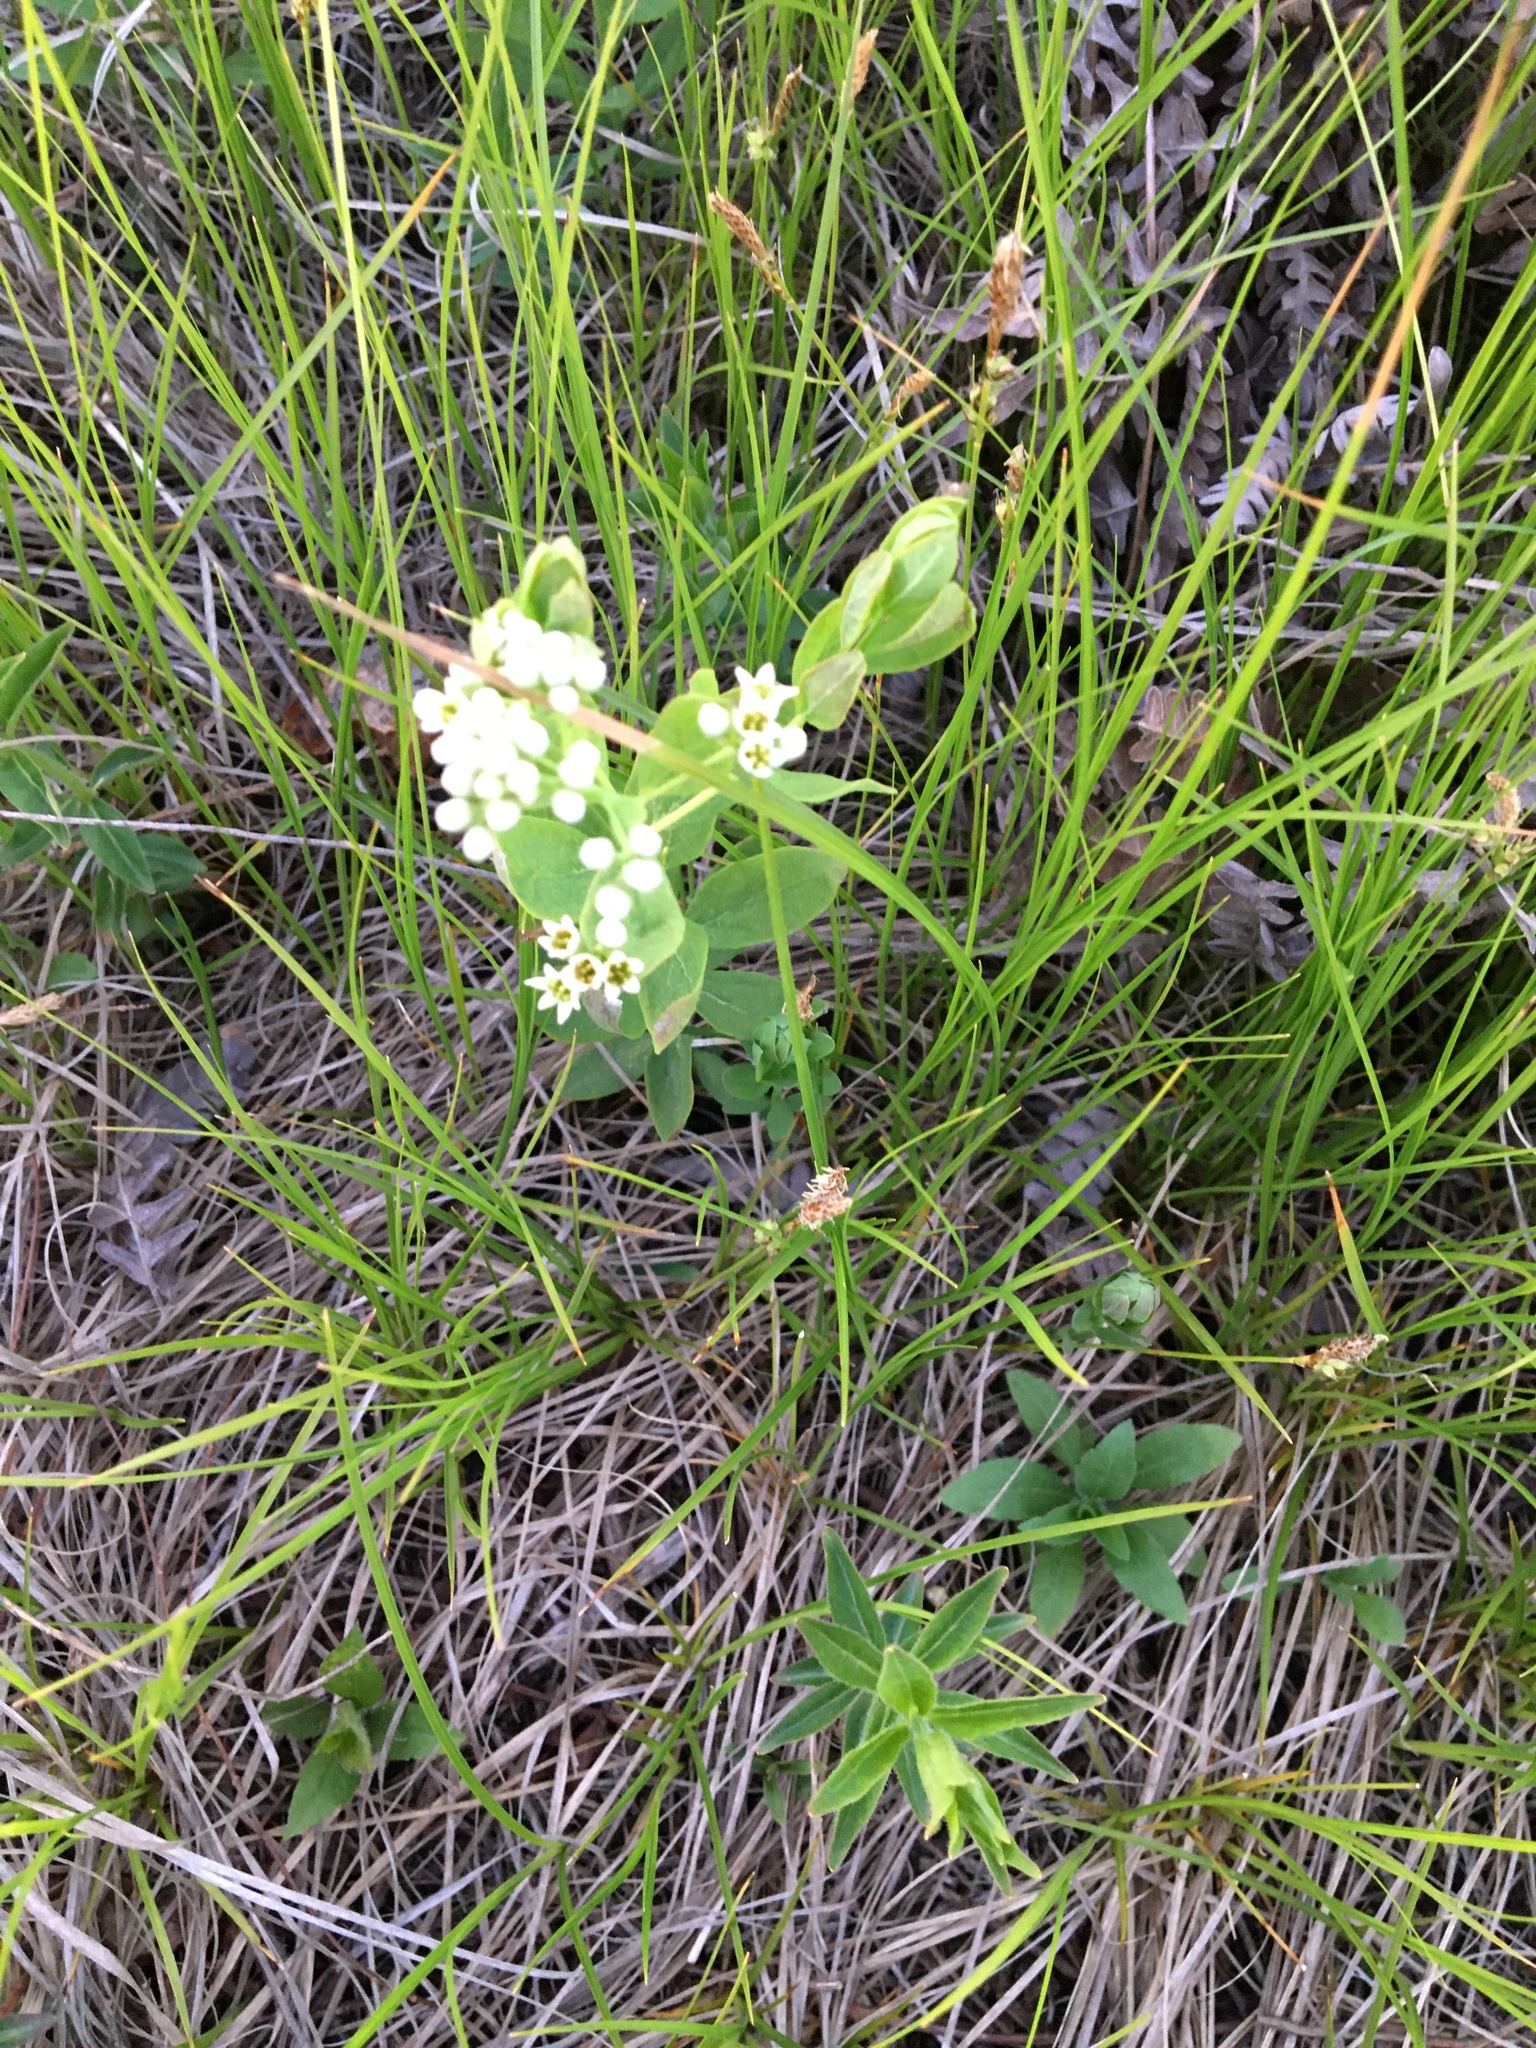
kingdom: Plantae
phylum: Tracheophyta
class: Magnoliopsida
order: Santalales
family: Comandraceae
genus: Comandra
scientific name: Comandra umbellata
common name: Bastard toadflax
